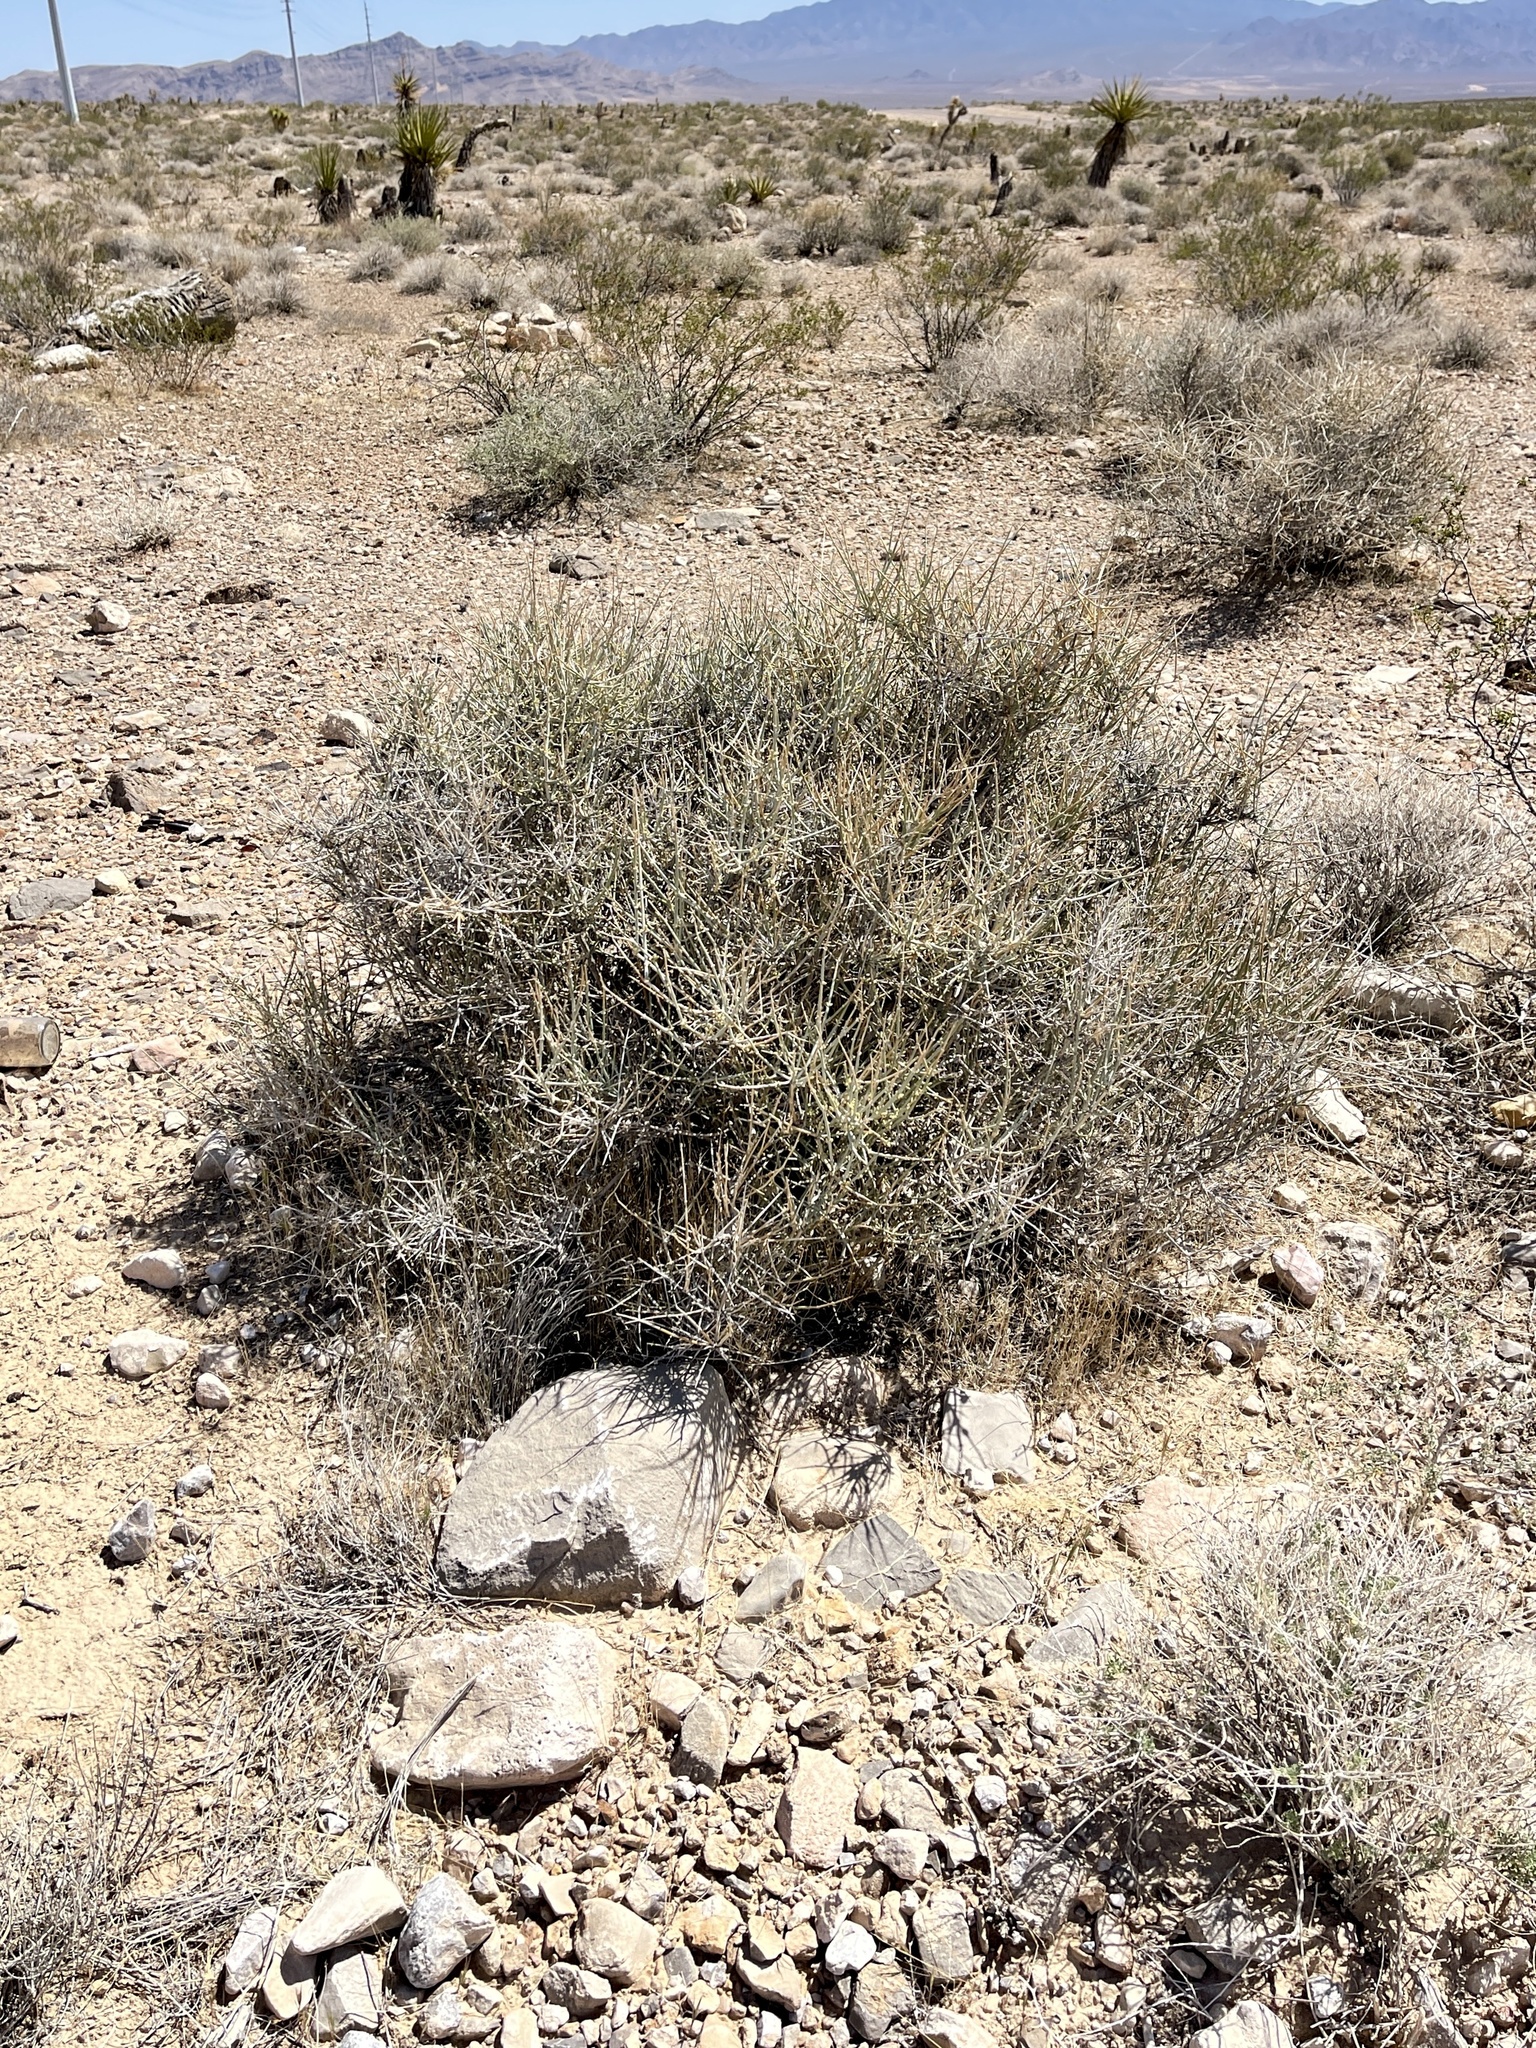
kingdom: Plantae
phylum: Tracheophyta
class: Gnetopsida
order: Ephedrales
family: Ephedraceae
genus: Ephedra
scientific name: Ephedra nevadensis
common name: Gray ephedra
